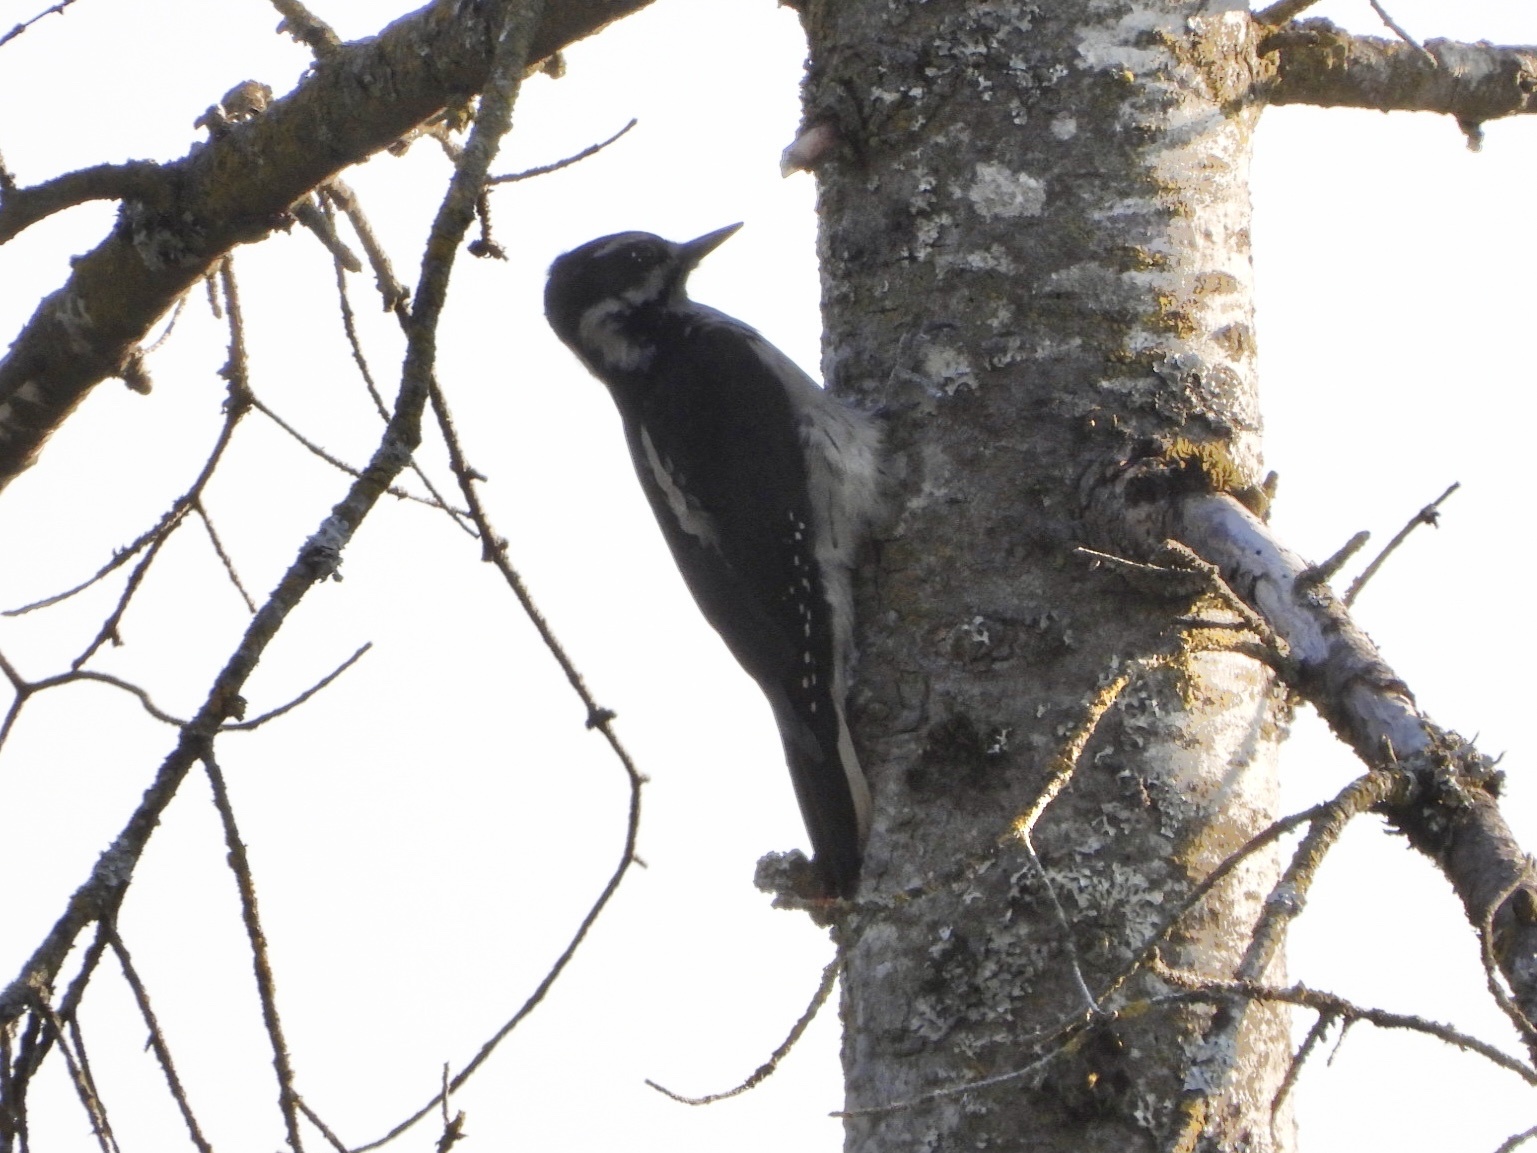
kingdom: Animalia
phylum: Chordata
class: Aves
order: Piciformes
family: Picidae
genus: Leuconotopicus
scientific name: Leuconotopicus villosus
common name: Hairy woodpecker
